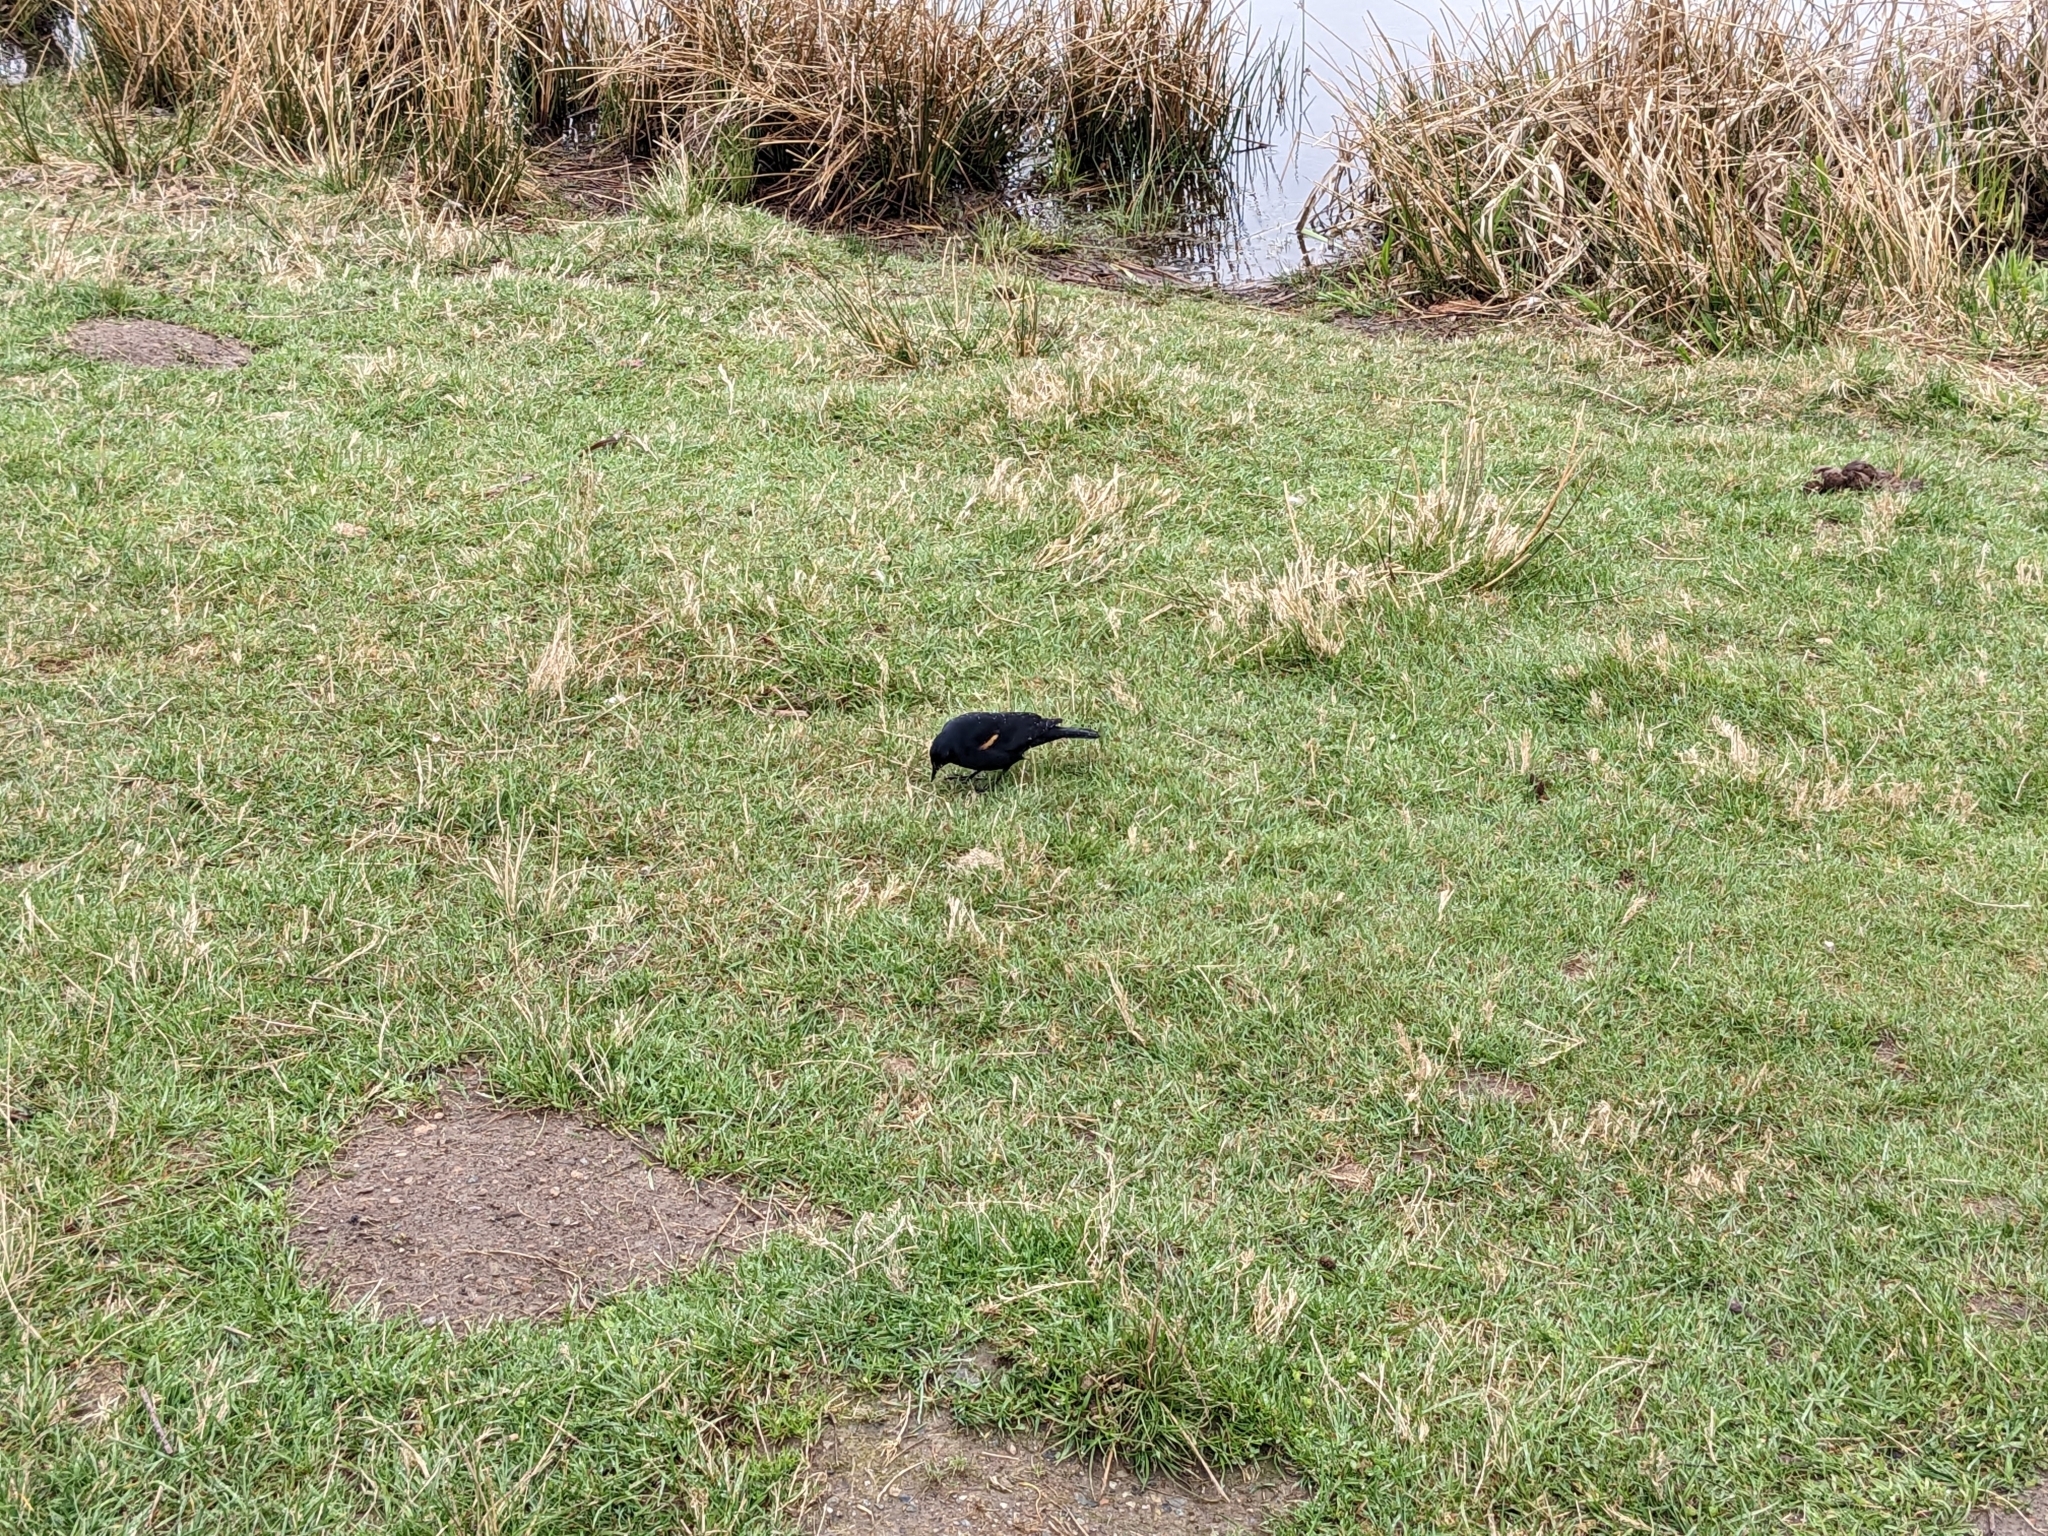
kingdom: Animalia
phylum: Chordata
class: Aves
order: Passeriformes
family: Icteridae
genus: Agelaius
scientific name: Agelaius phoeniceus
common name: Red-winged blackbird
